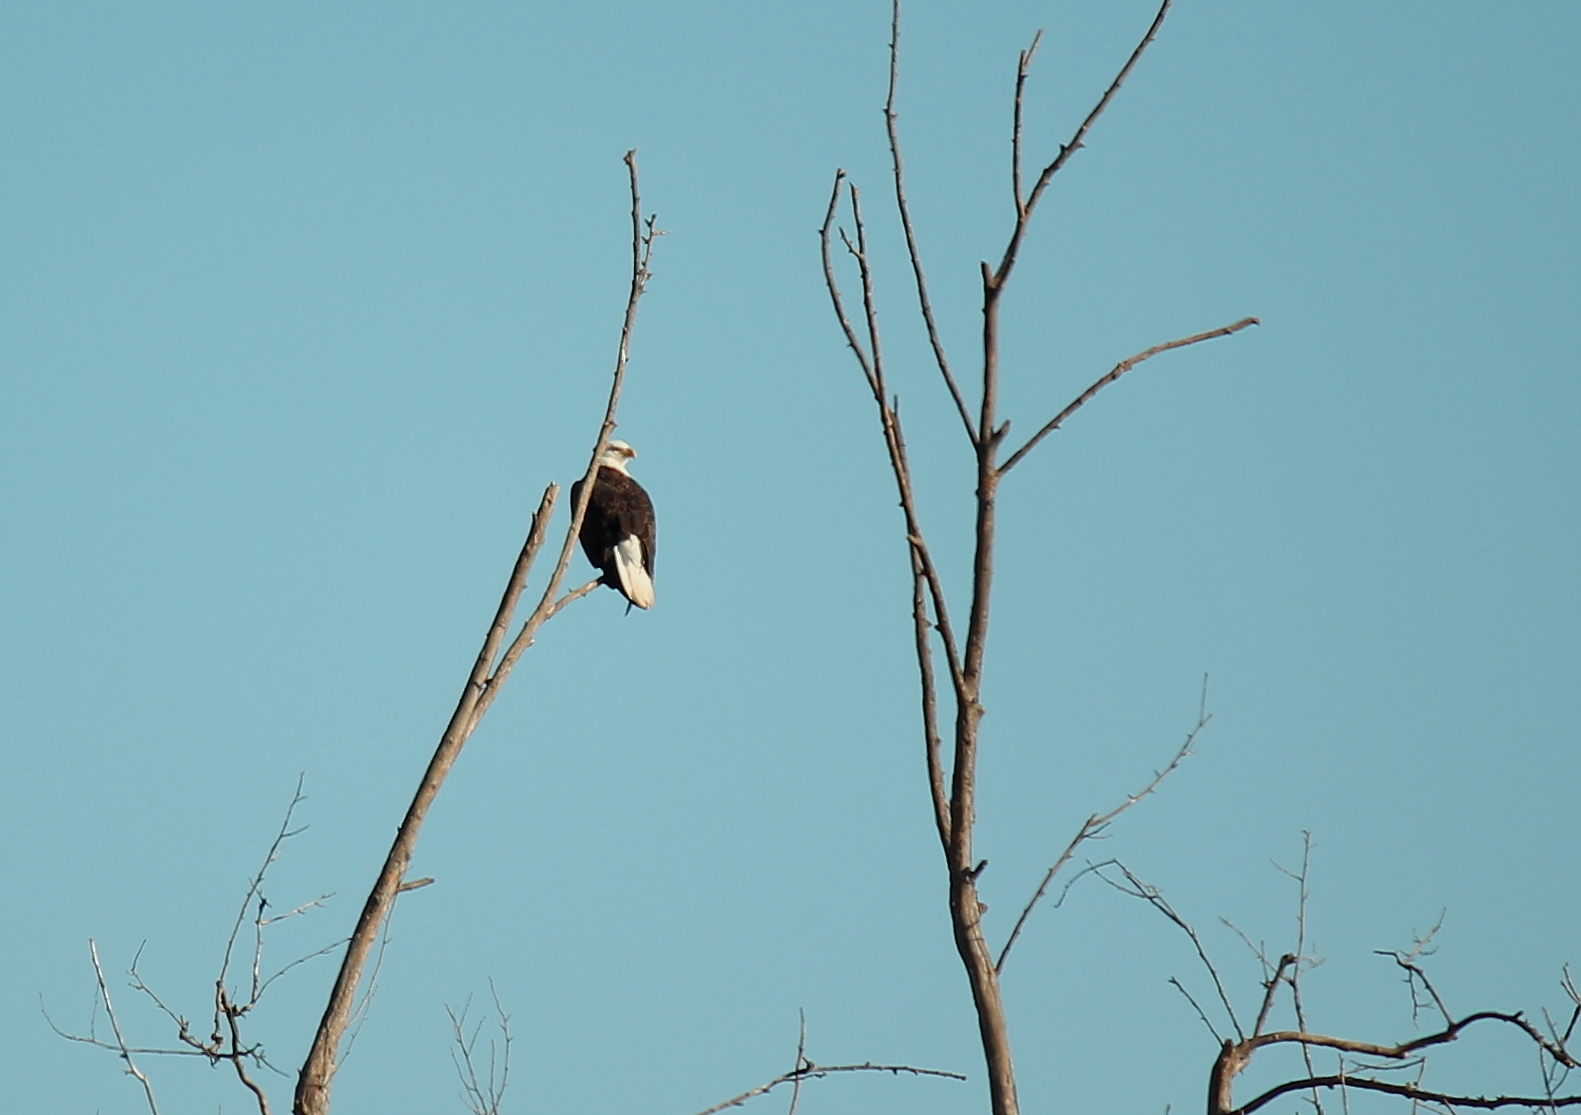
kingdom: Animalia
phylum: Chordata
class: Aves
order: Accipitriformes
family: Accipitridae
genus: Haliaeetus
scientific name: Haliaeetus leucocephalus
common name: Bald eagle
